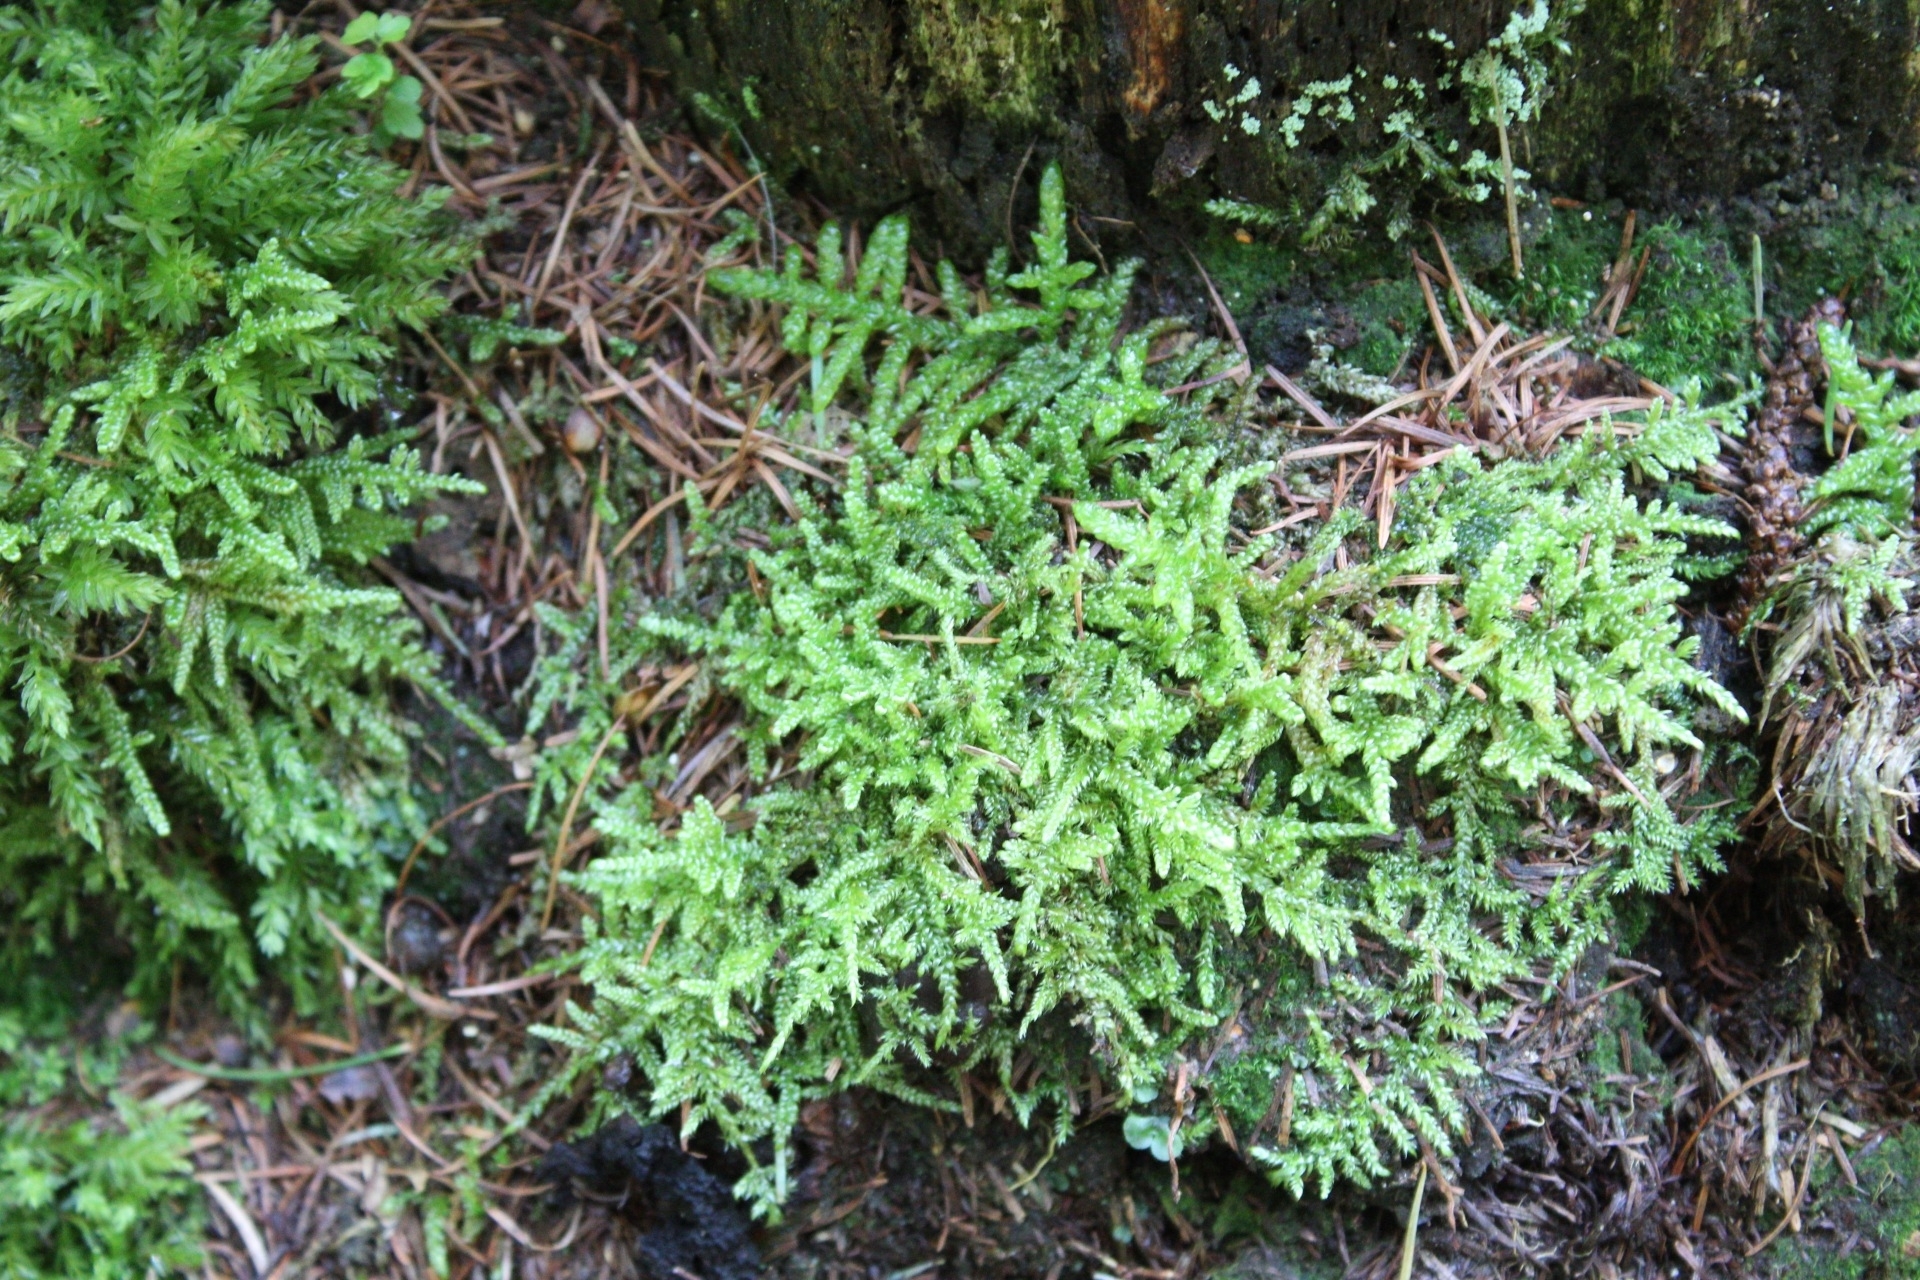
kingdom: Plantae
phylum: Bryophyta
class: Bryopsida
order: Hypnales
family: Brachytheciaceae
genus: Pseudoscleropodium
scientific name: Pseudoscleropodium purum
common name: Neat feather-moss
